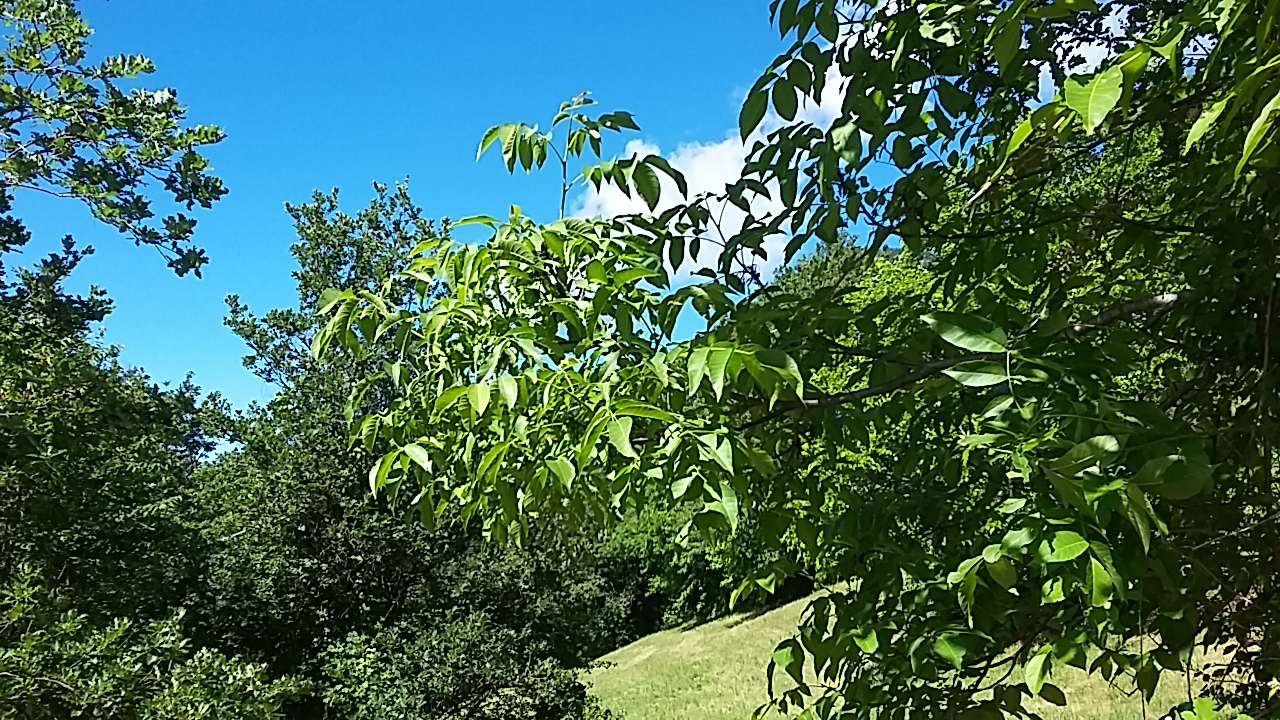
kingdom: Plantae
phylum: Tracheophyta
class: Magnoliopsida
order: Fagales
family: Juglandaceae
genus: Juglans
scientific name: Juglans regia
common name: Walnut
